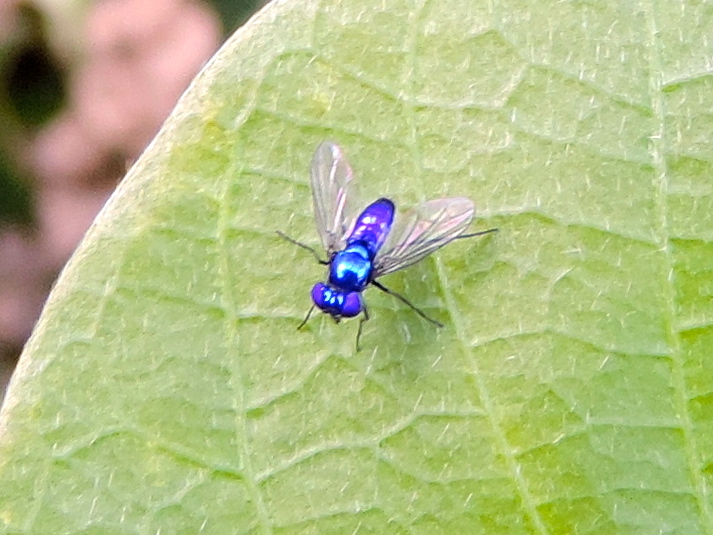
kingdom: Animalia
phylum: Arthropoda
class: Insecta
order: Diptera
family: Dolichopodidae
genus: Condylostylus
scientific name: Condylostylus
